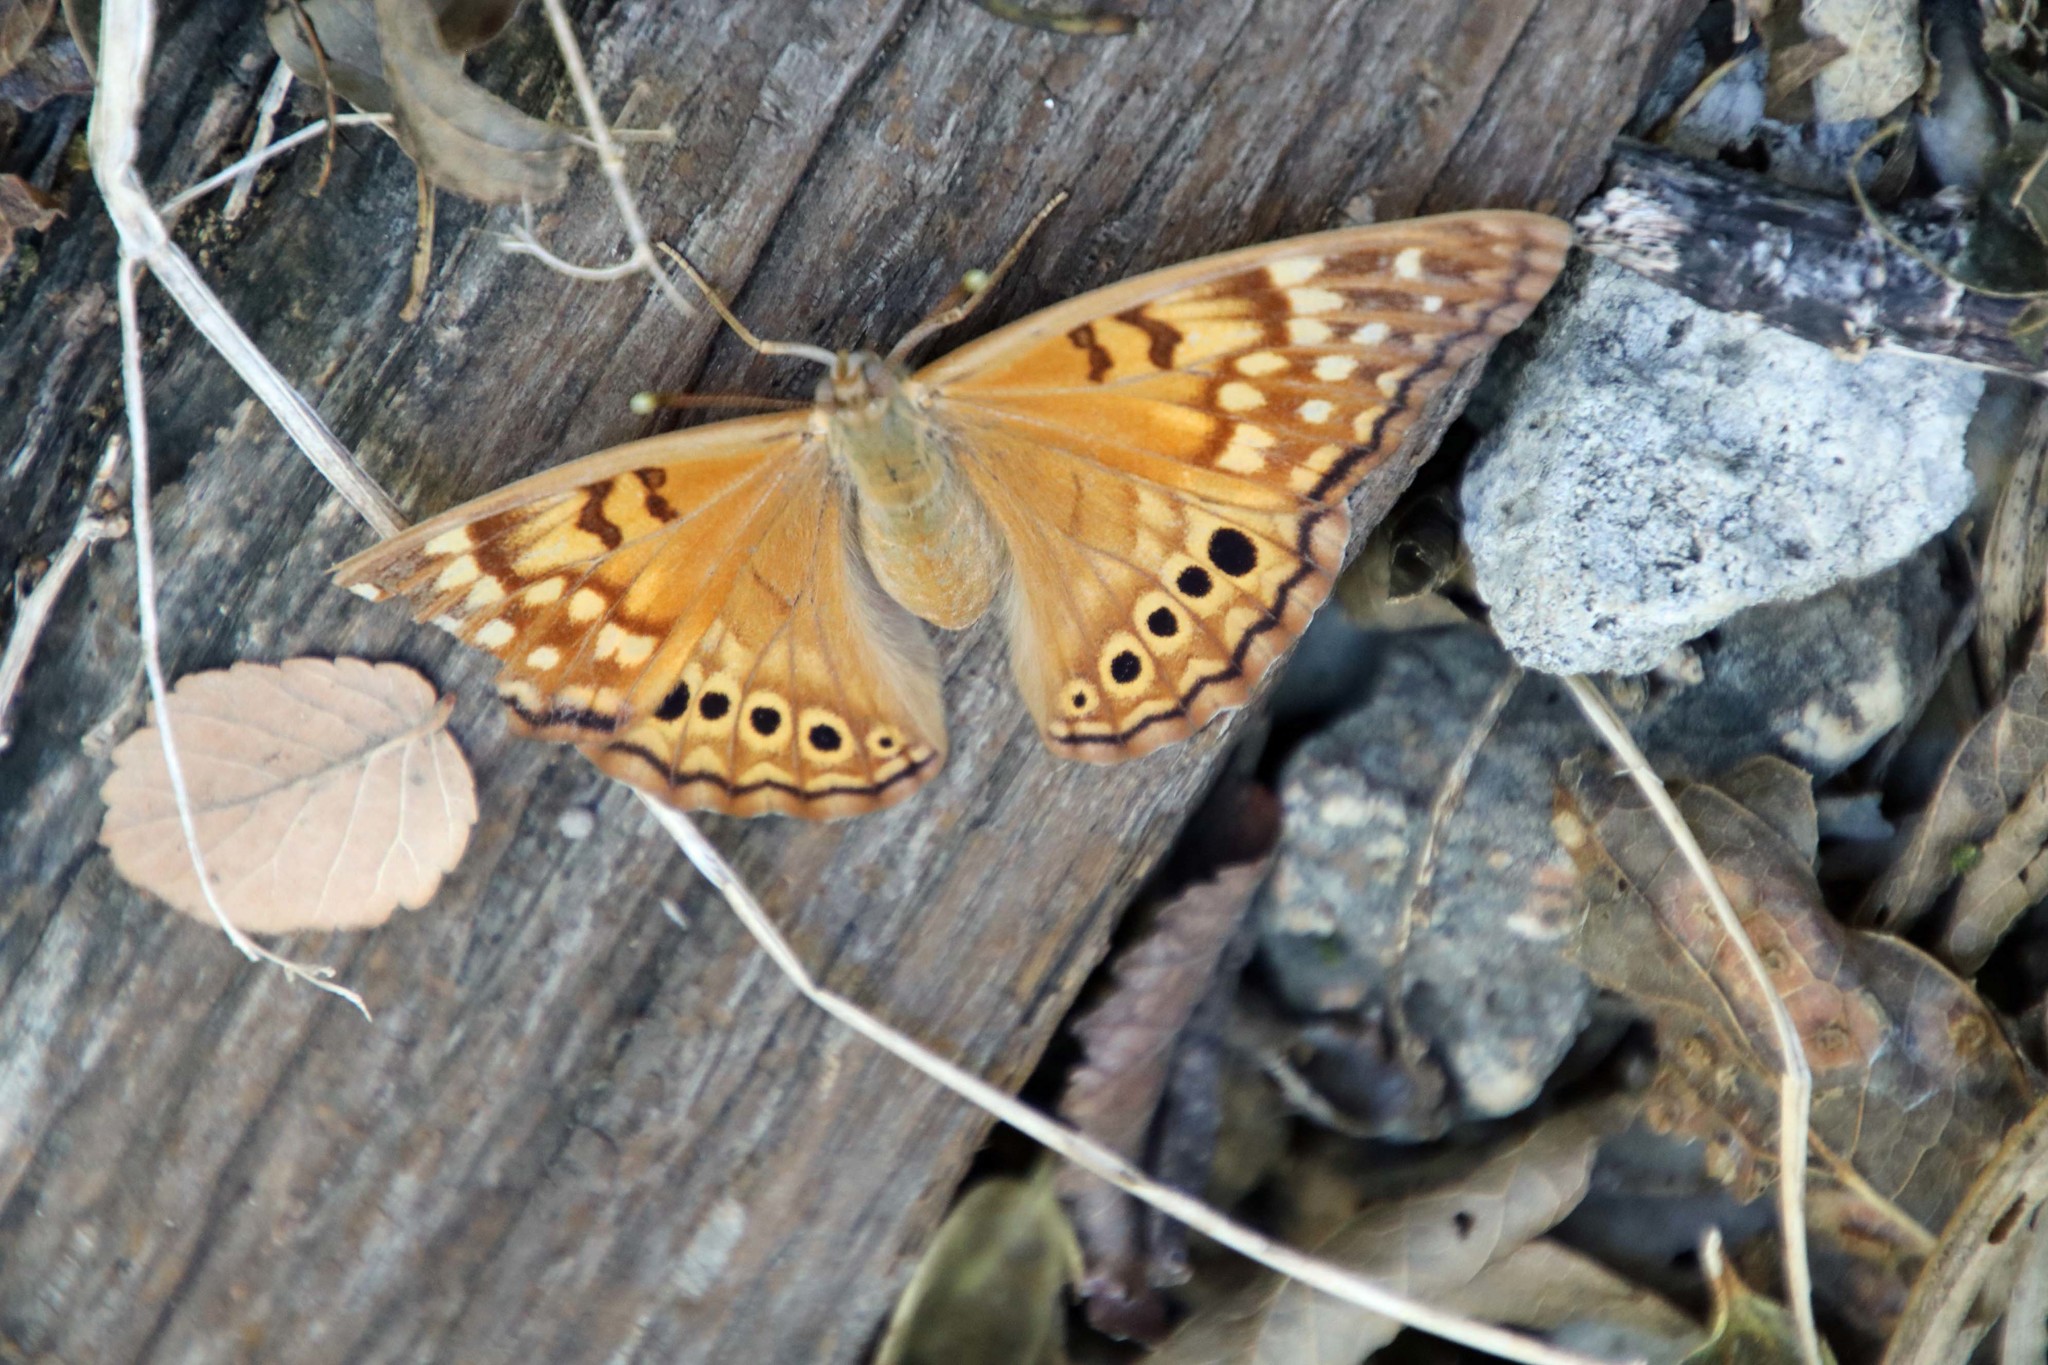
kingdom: Animalia
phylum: Arthropoda
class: Insecta
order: Lepidoptera
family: Nymphalidae
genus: Asterocampa
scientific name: Asterocampa clyton
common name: Tawny emperor
